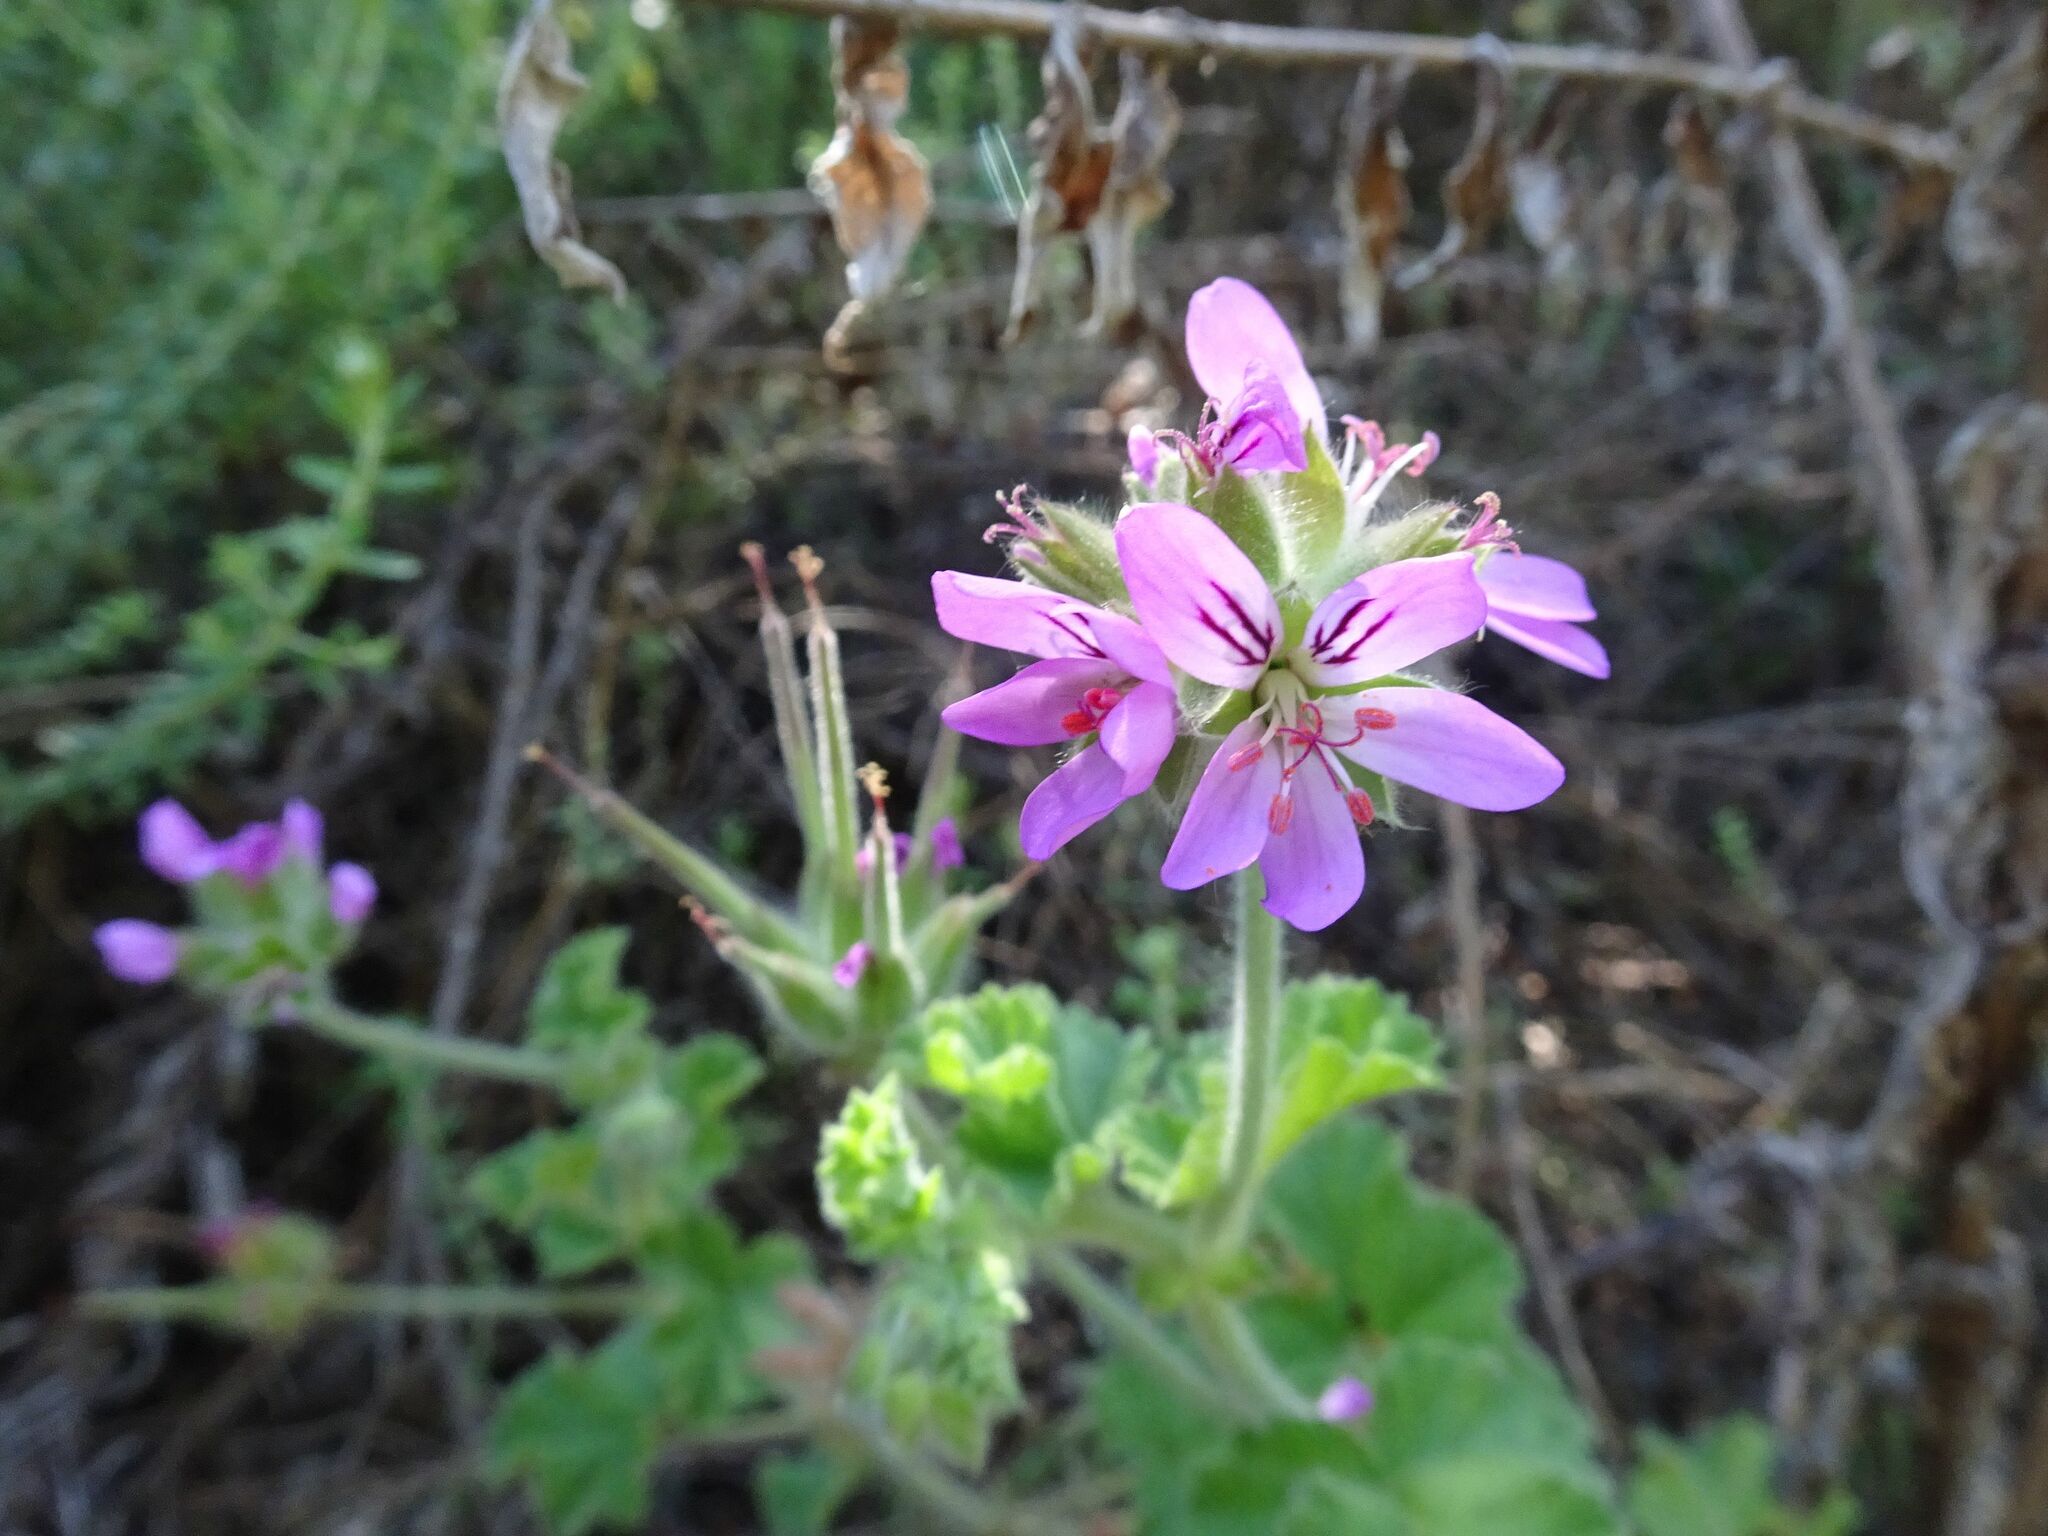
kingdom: Plantae
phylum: Tracheophyta
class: Magnoliopsida
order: Geraniales
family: Geraniaceae
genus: Pelargonium
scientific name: Pelargonium capitatum
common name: Rose scented geranium
